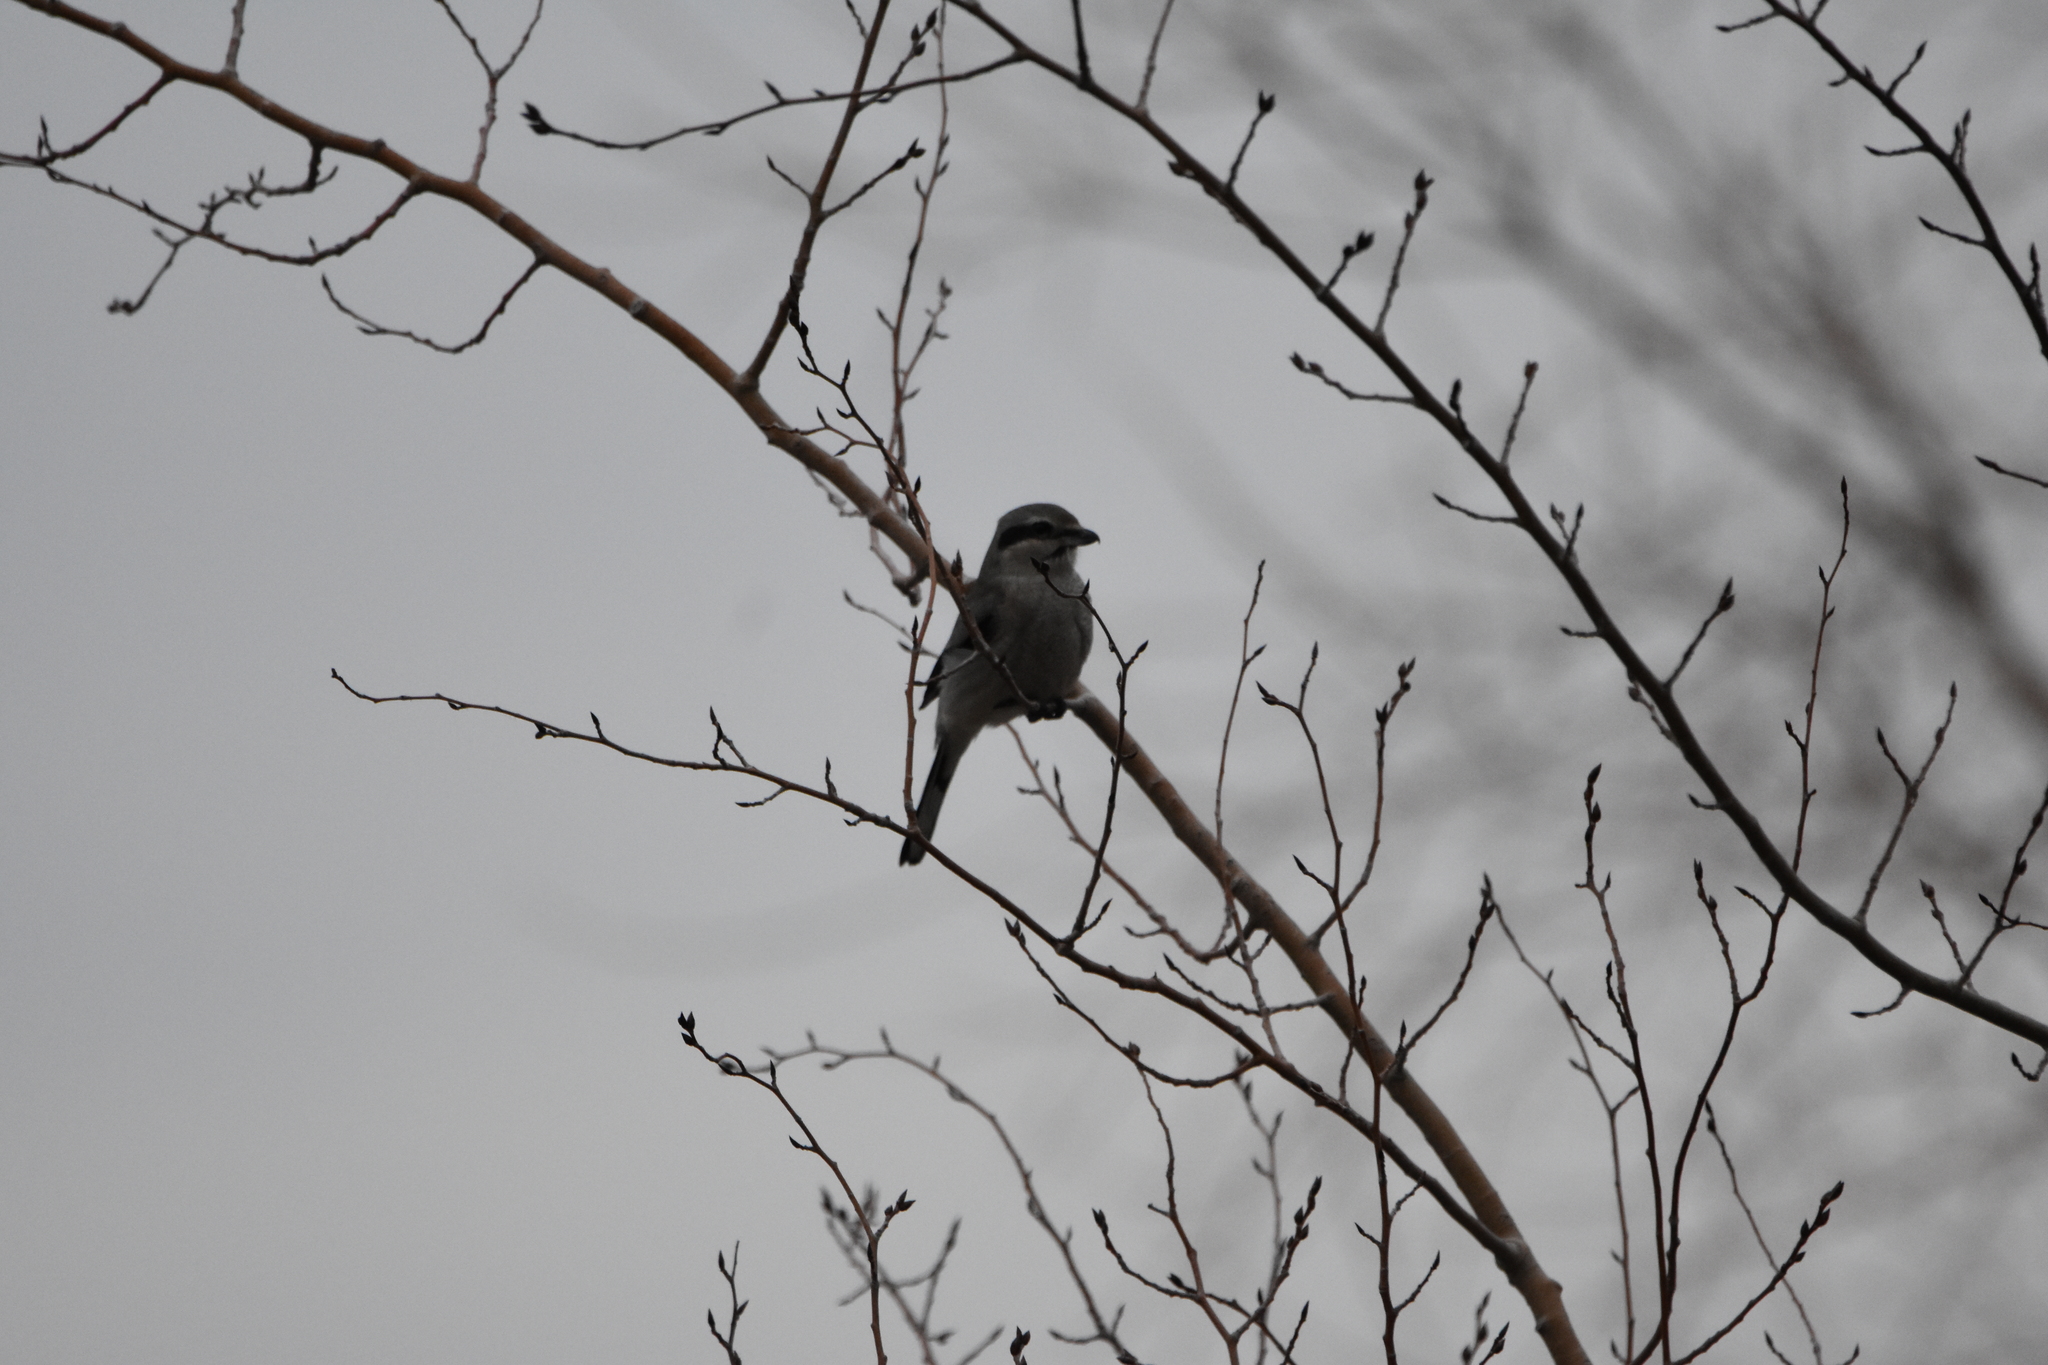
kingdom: Animalia
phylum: Chordata
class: Aves
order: Passeriformes
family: Laniidae
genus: Lanius
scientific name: Lanius borealis
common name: Northern shrike
